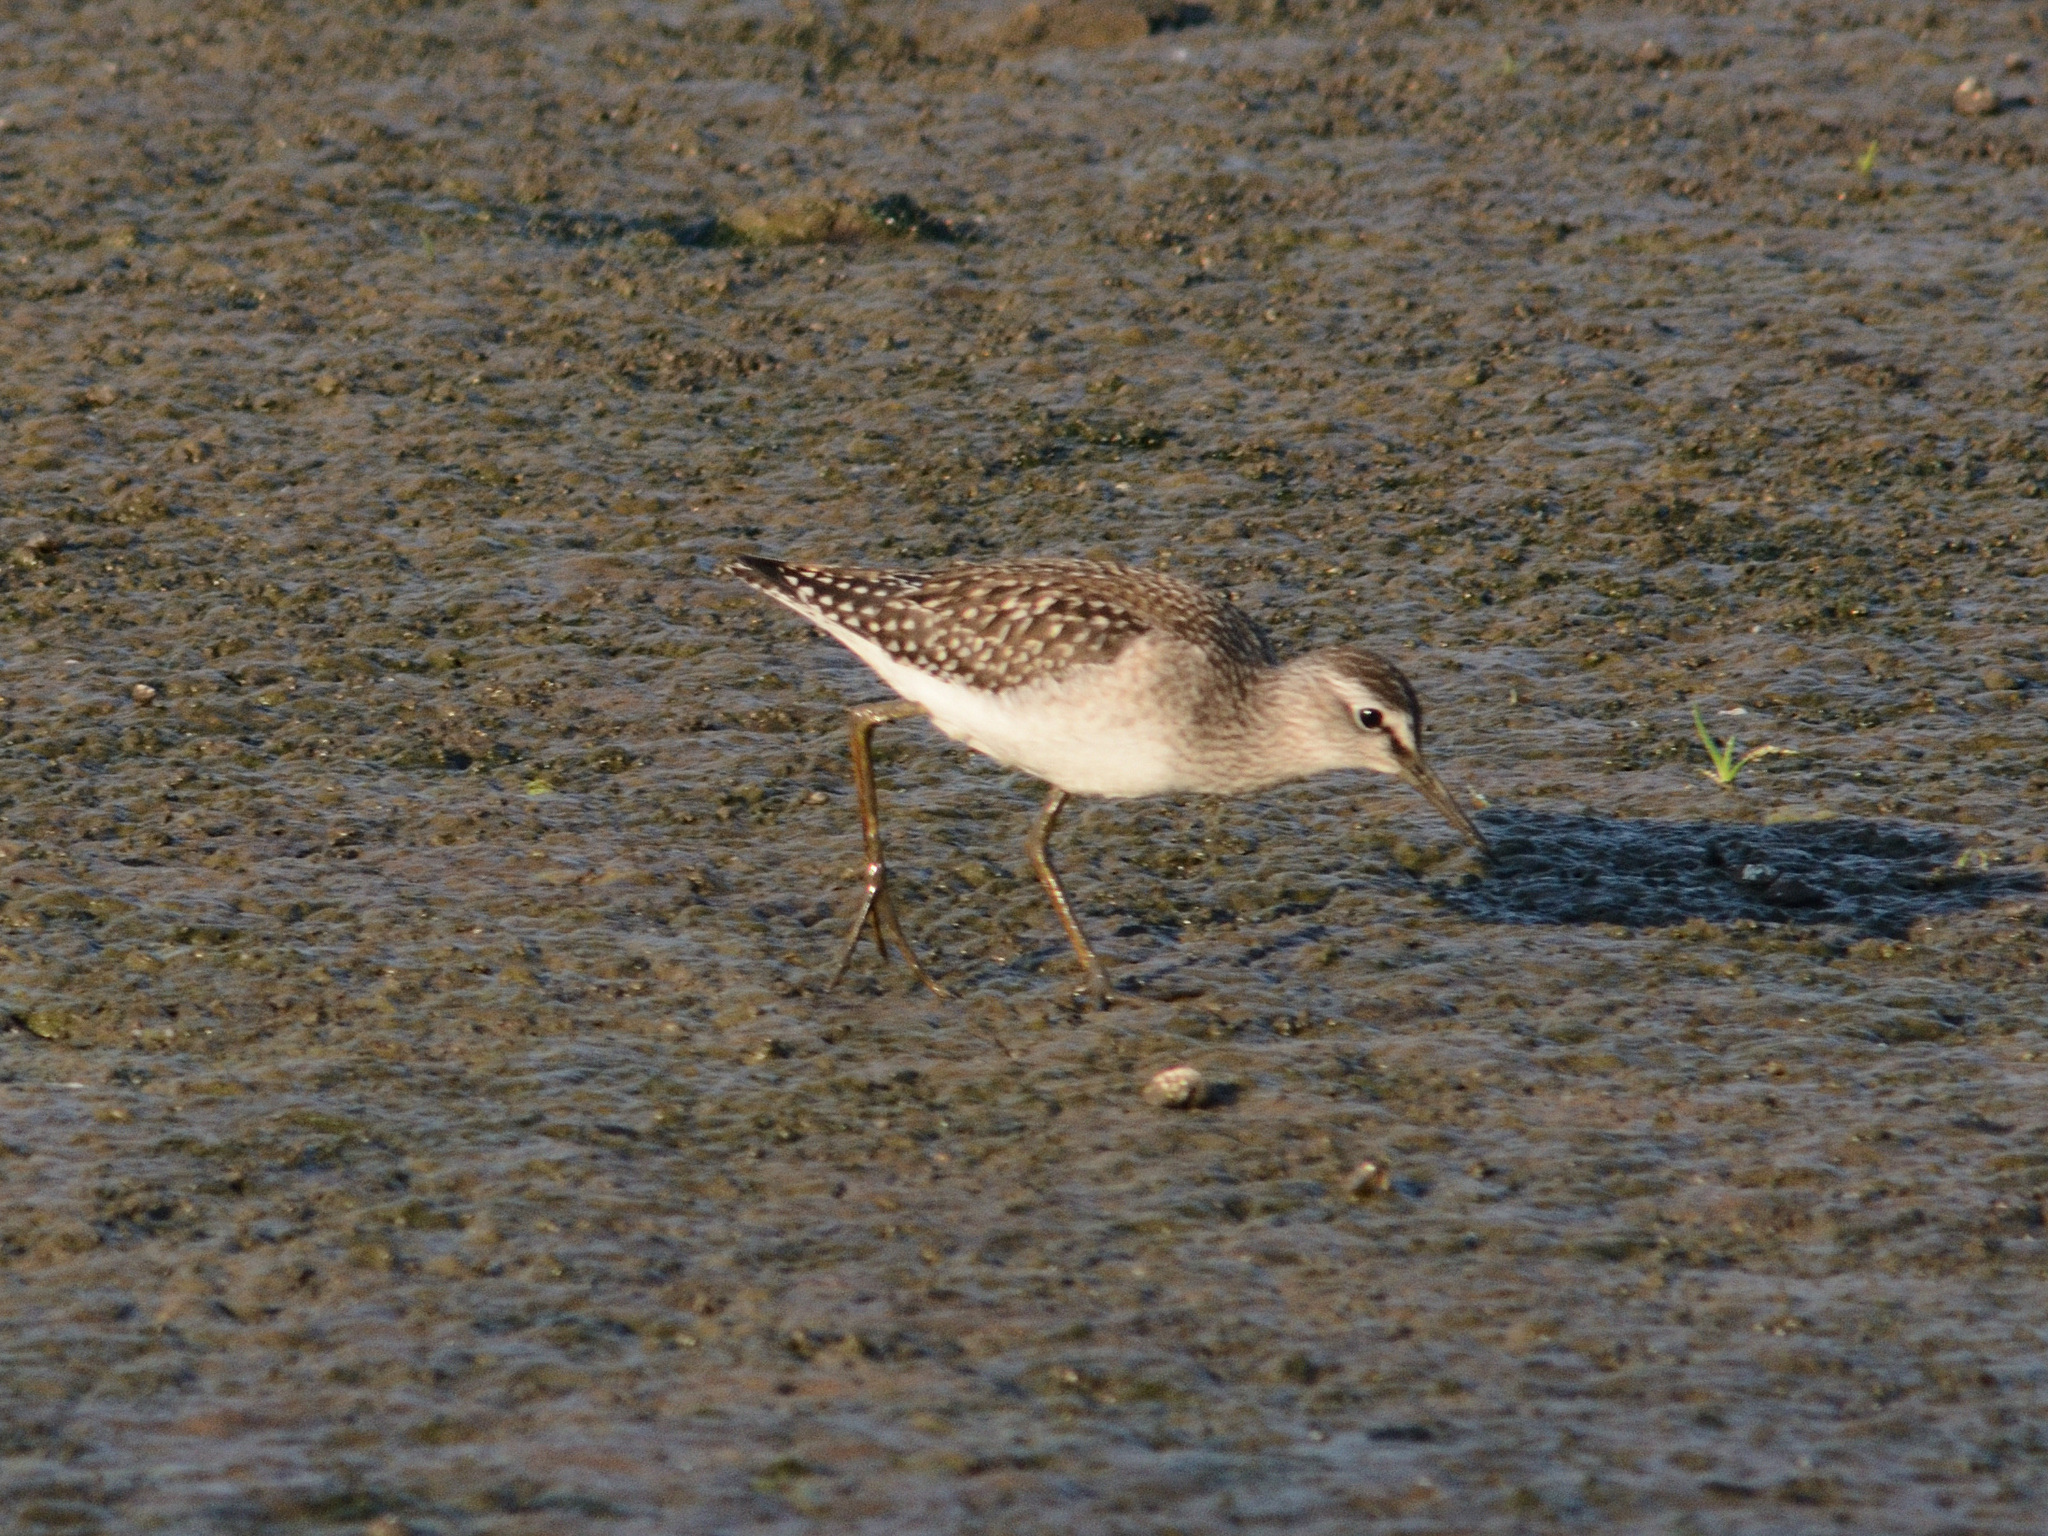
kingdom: Animalia
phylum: Chordata
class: Aves
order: Charadriiformes
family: Scolopacidae
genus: Tringa
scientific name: Tringa glareola
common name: Wood sandpiper
